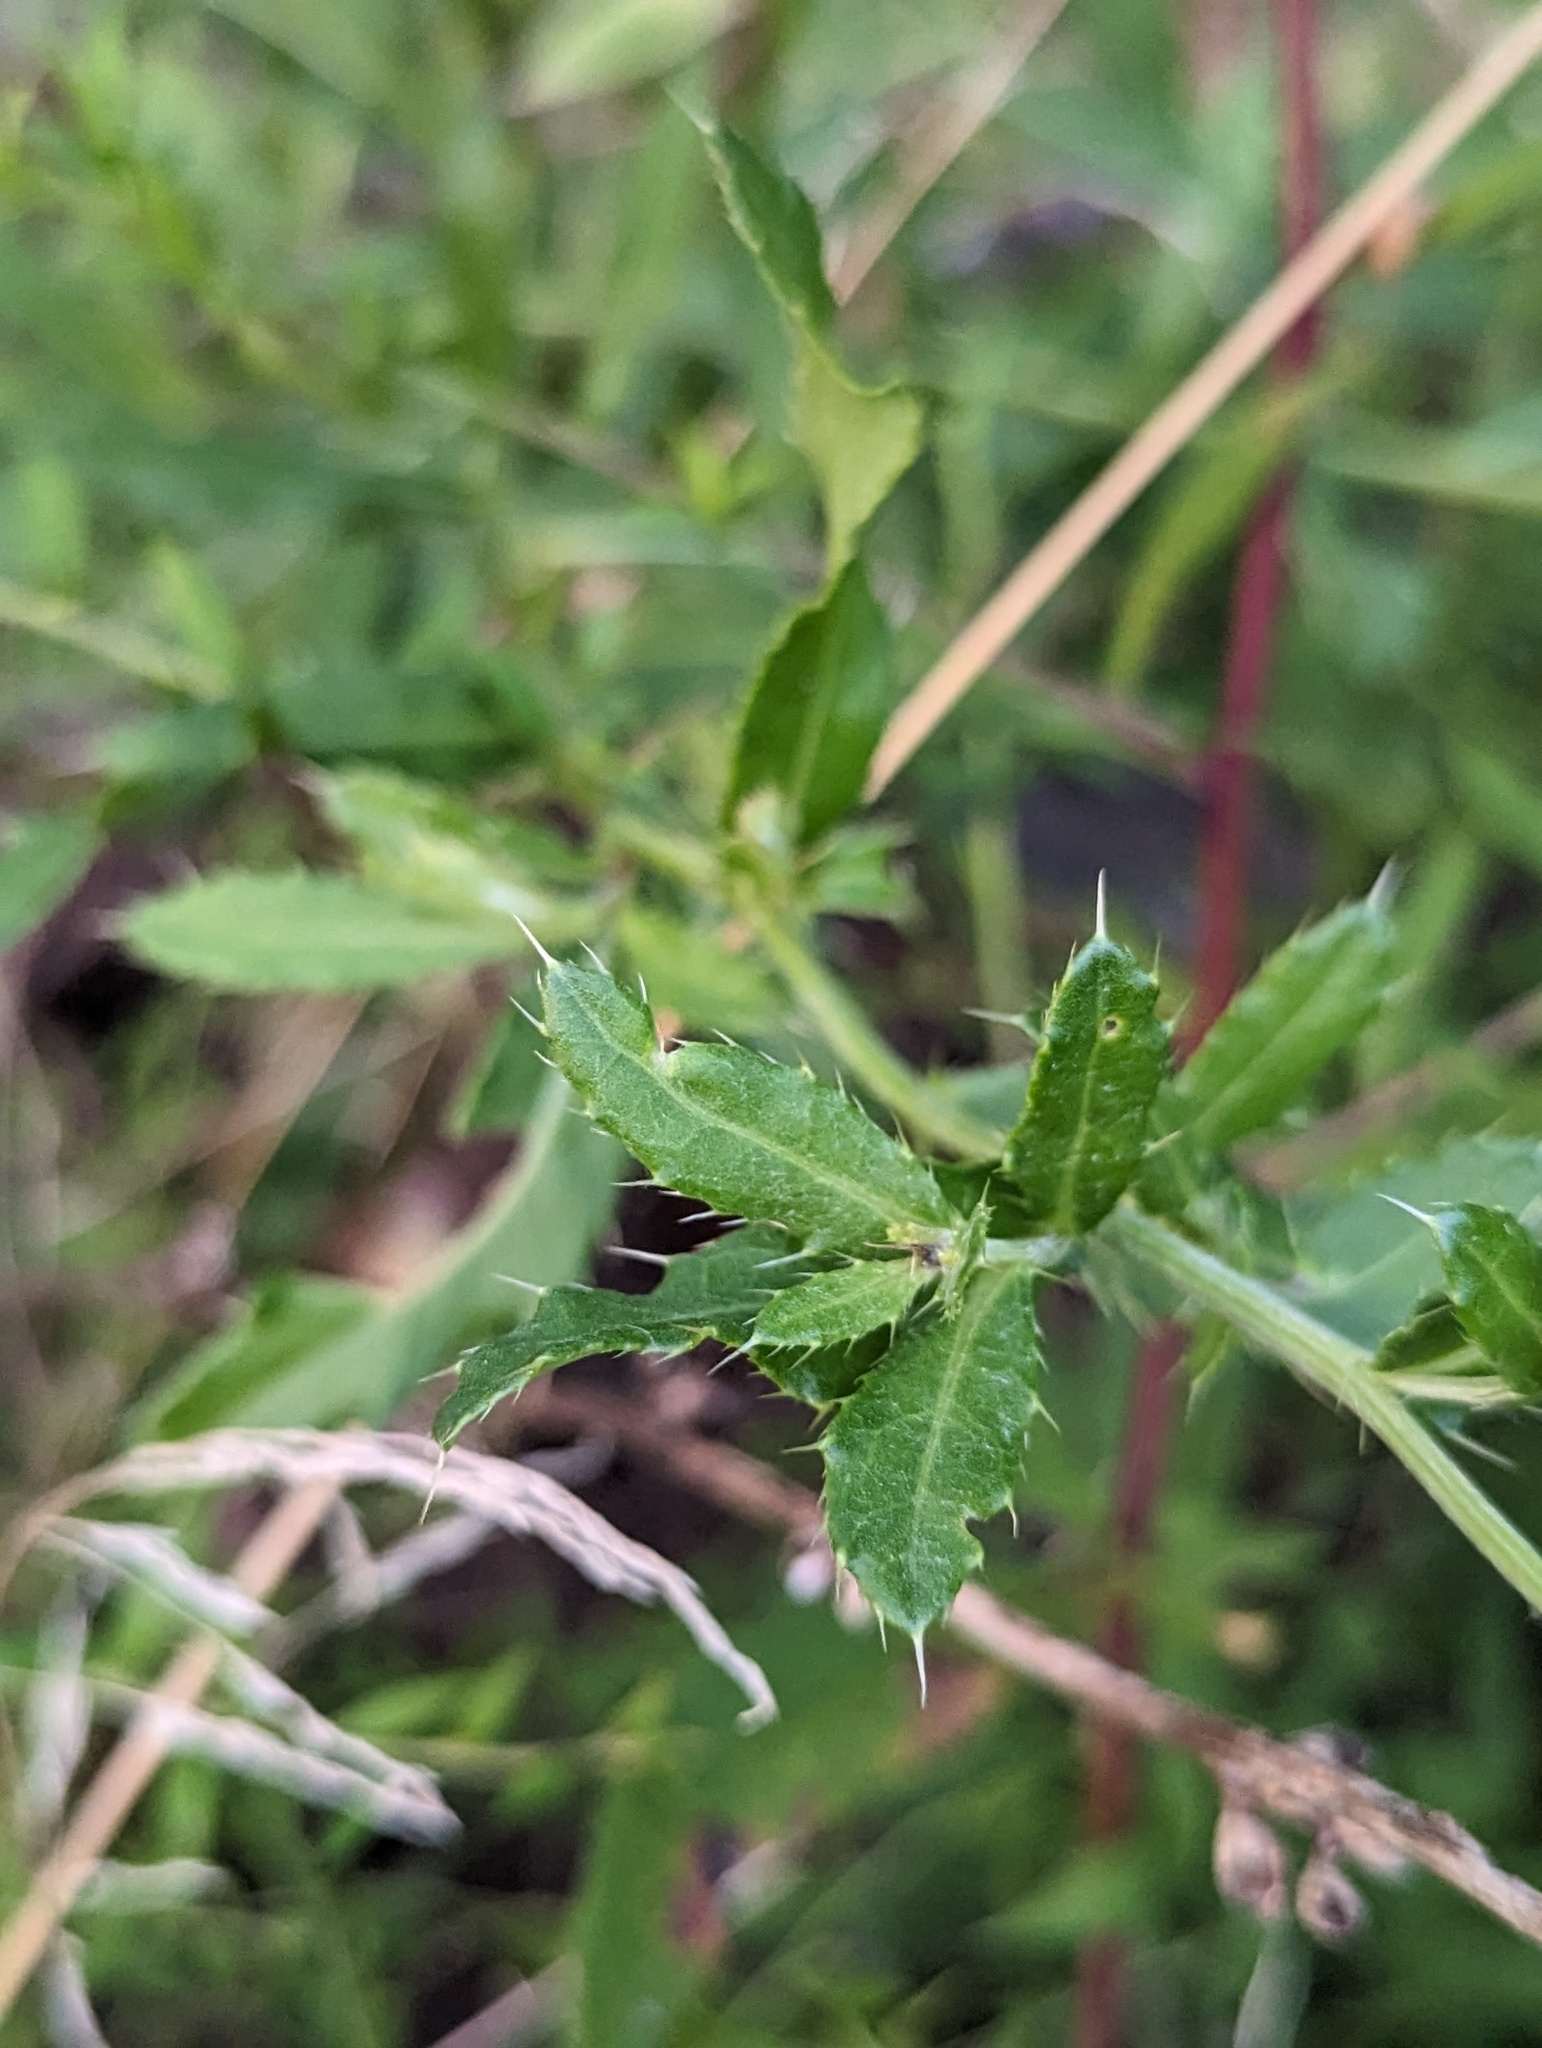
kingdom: Plantae
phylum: Tracheophyta
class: Magnoliopsida
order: Asterales
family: Asteraceae
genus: Cirsium
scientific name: Cirsium arvense
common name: Creeping thistle
